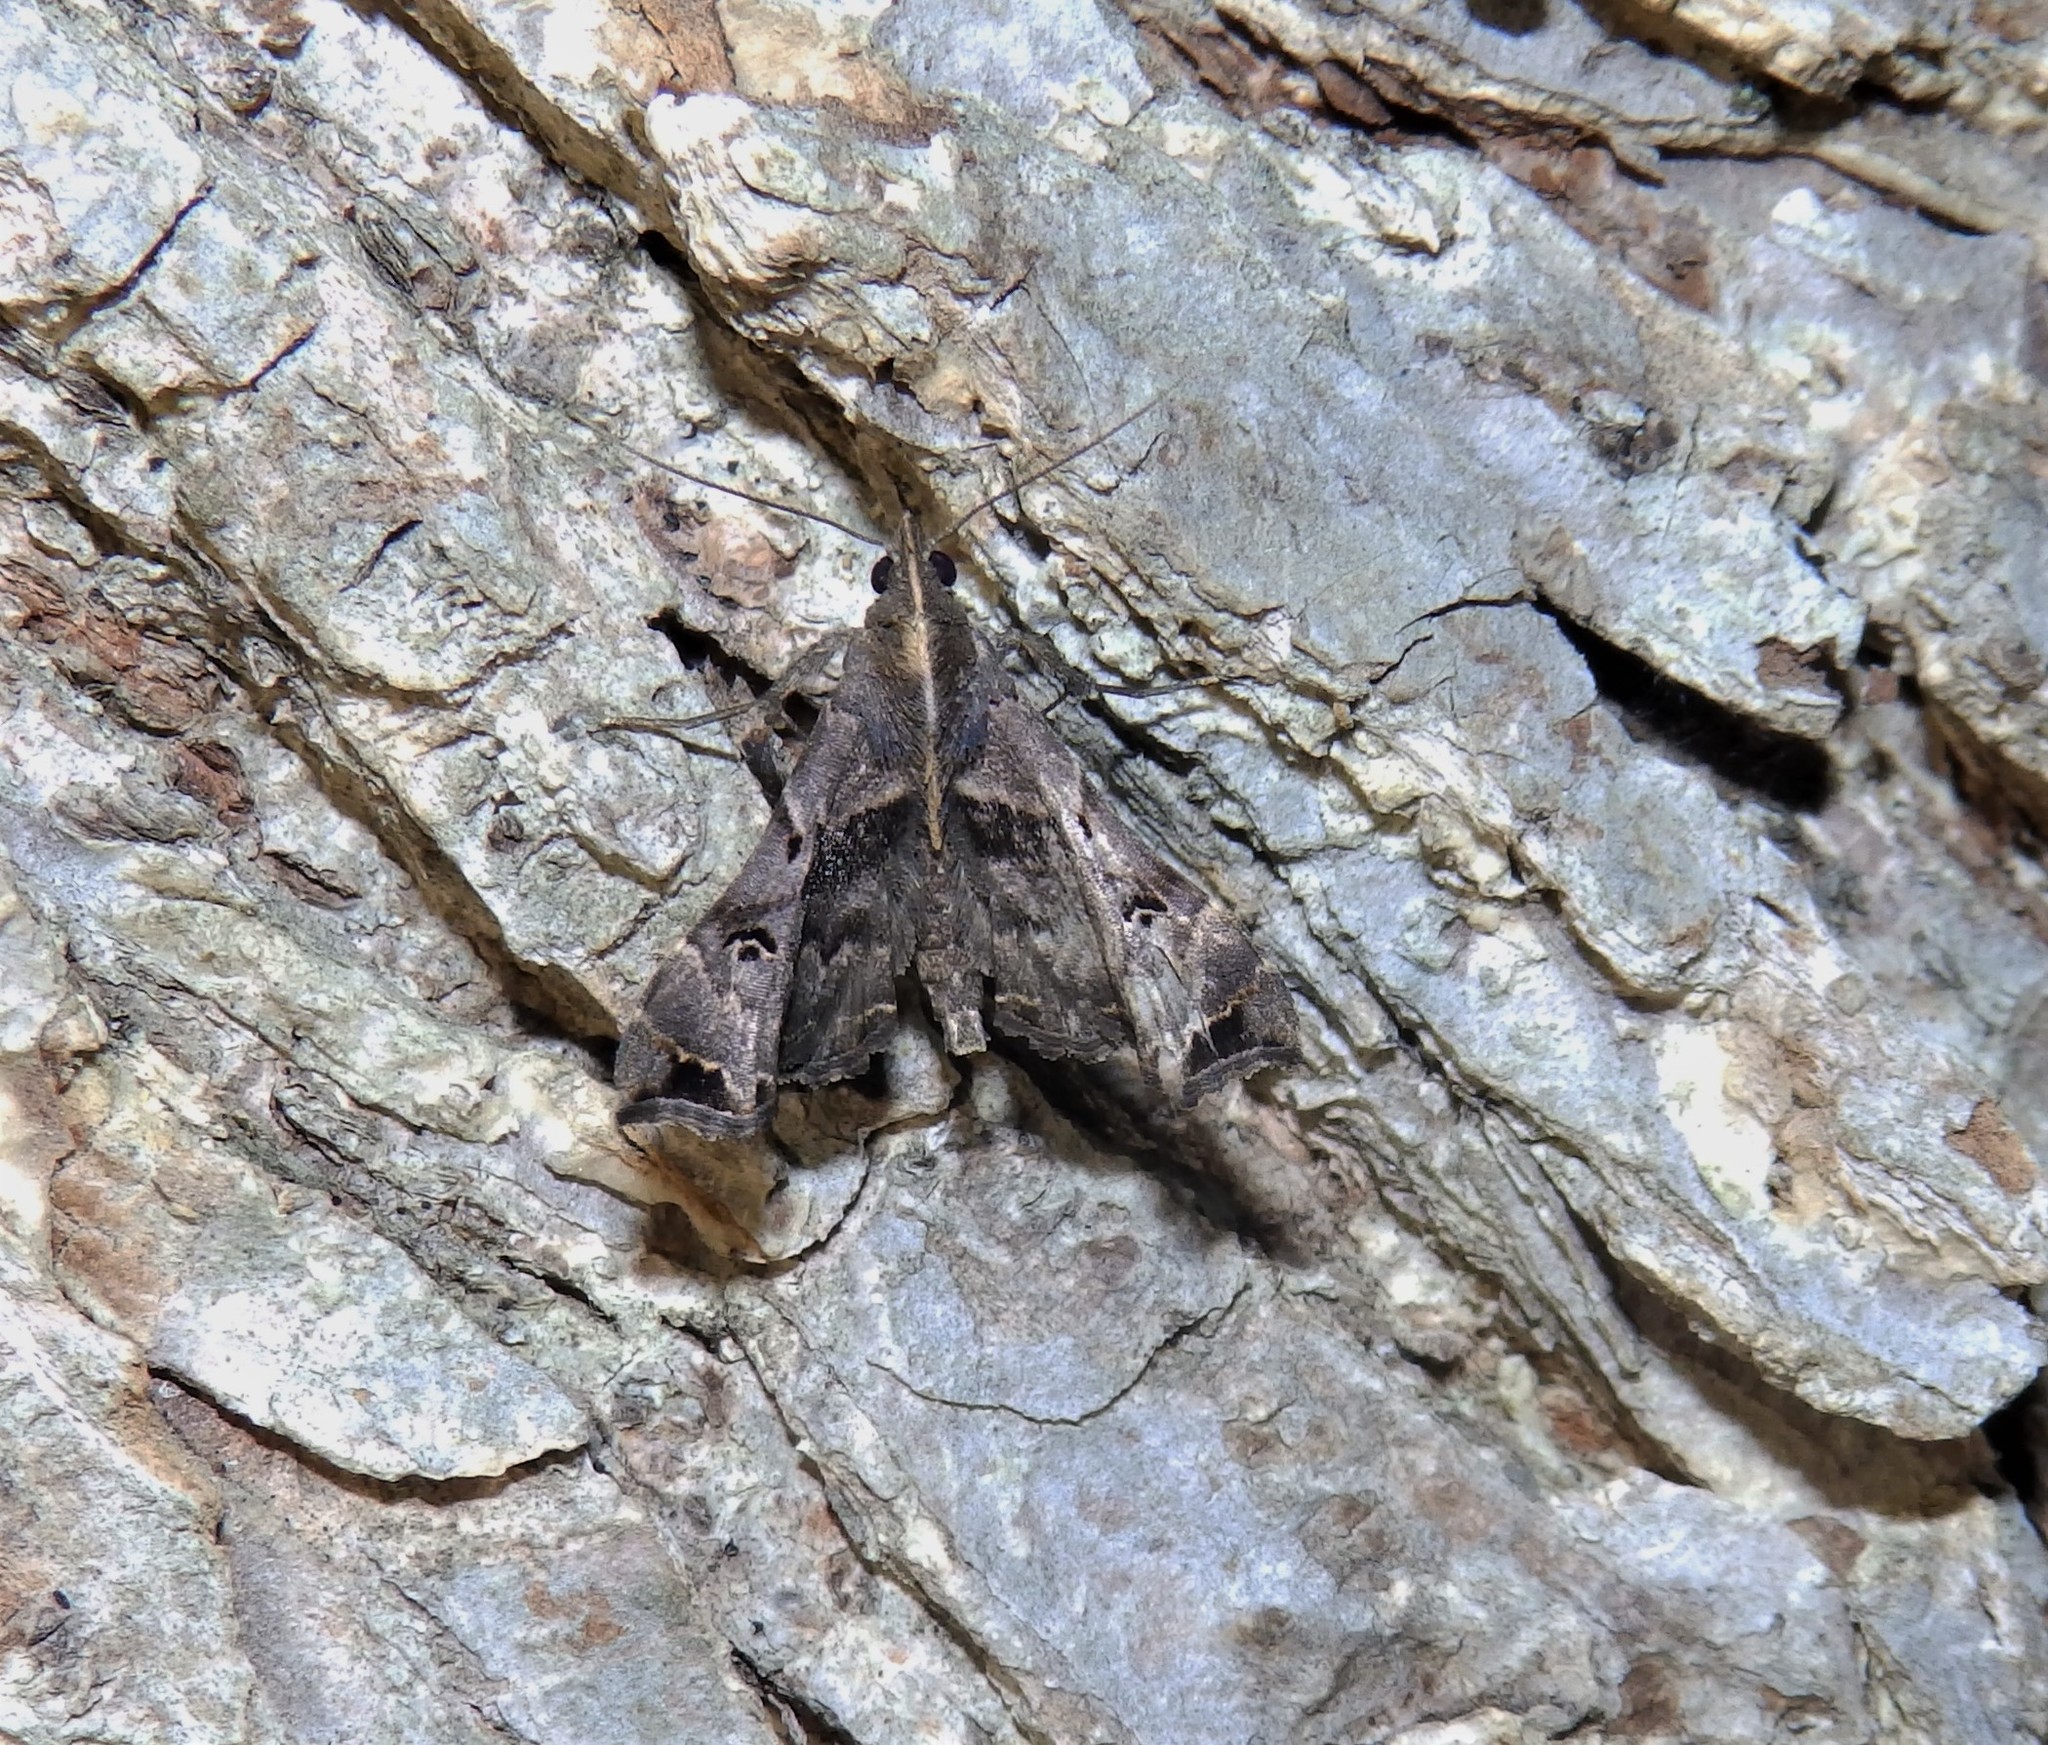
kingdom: Animalia
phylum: Arthropoda
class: Insecta
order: Lepidoptera
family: Erebidae
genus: Palthis
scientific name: Palthis asopialis
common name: Faint-spotted palthis moth
